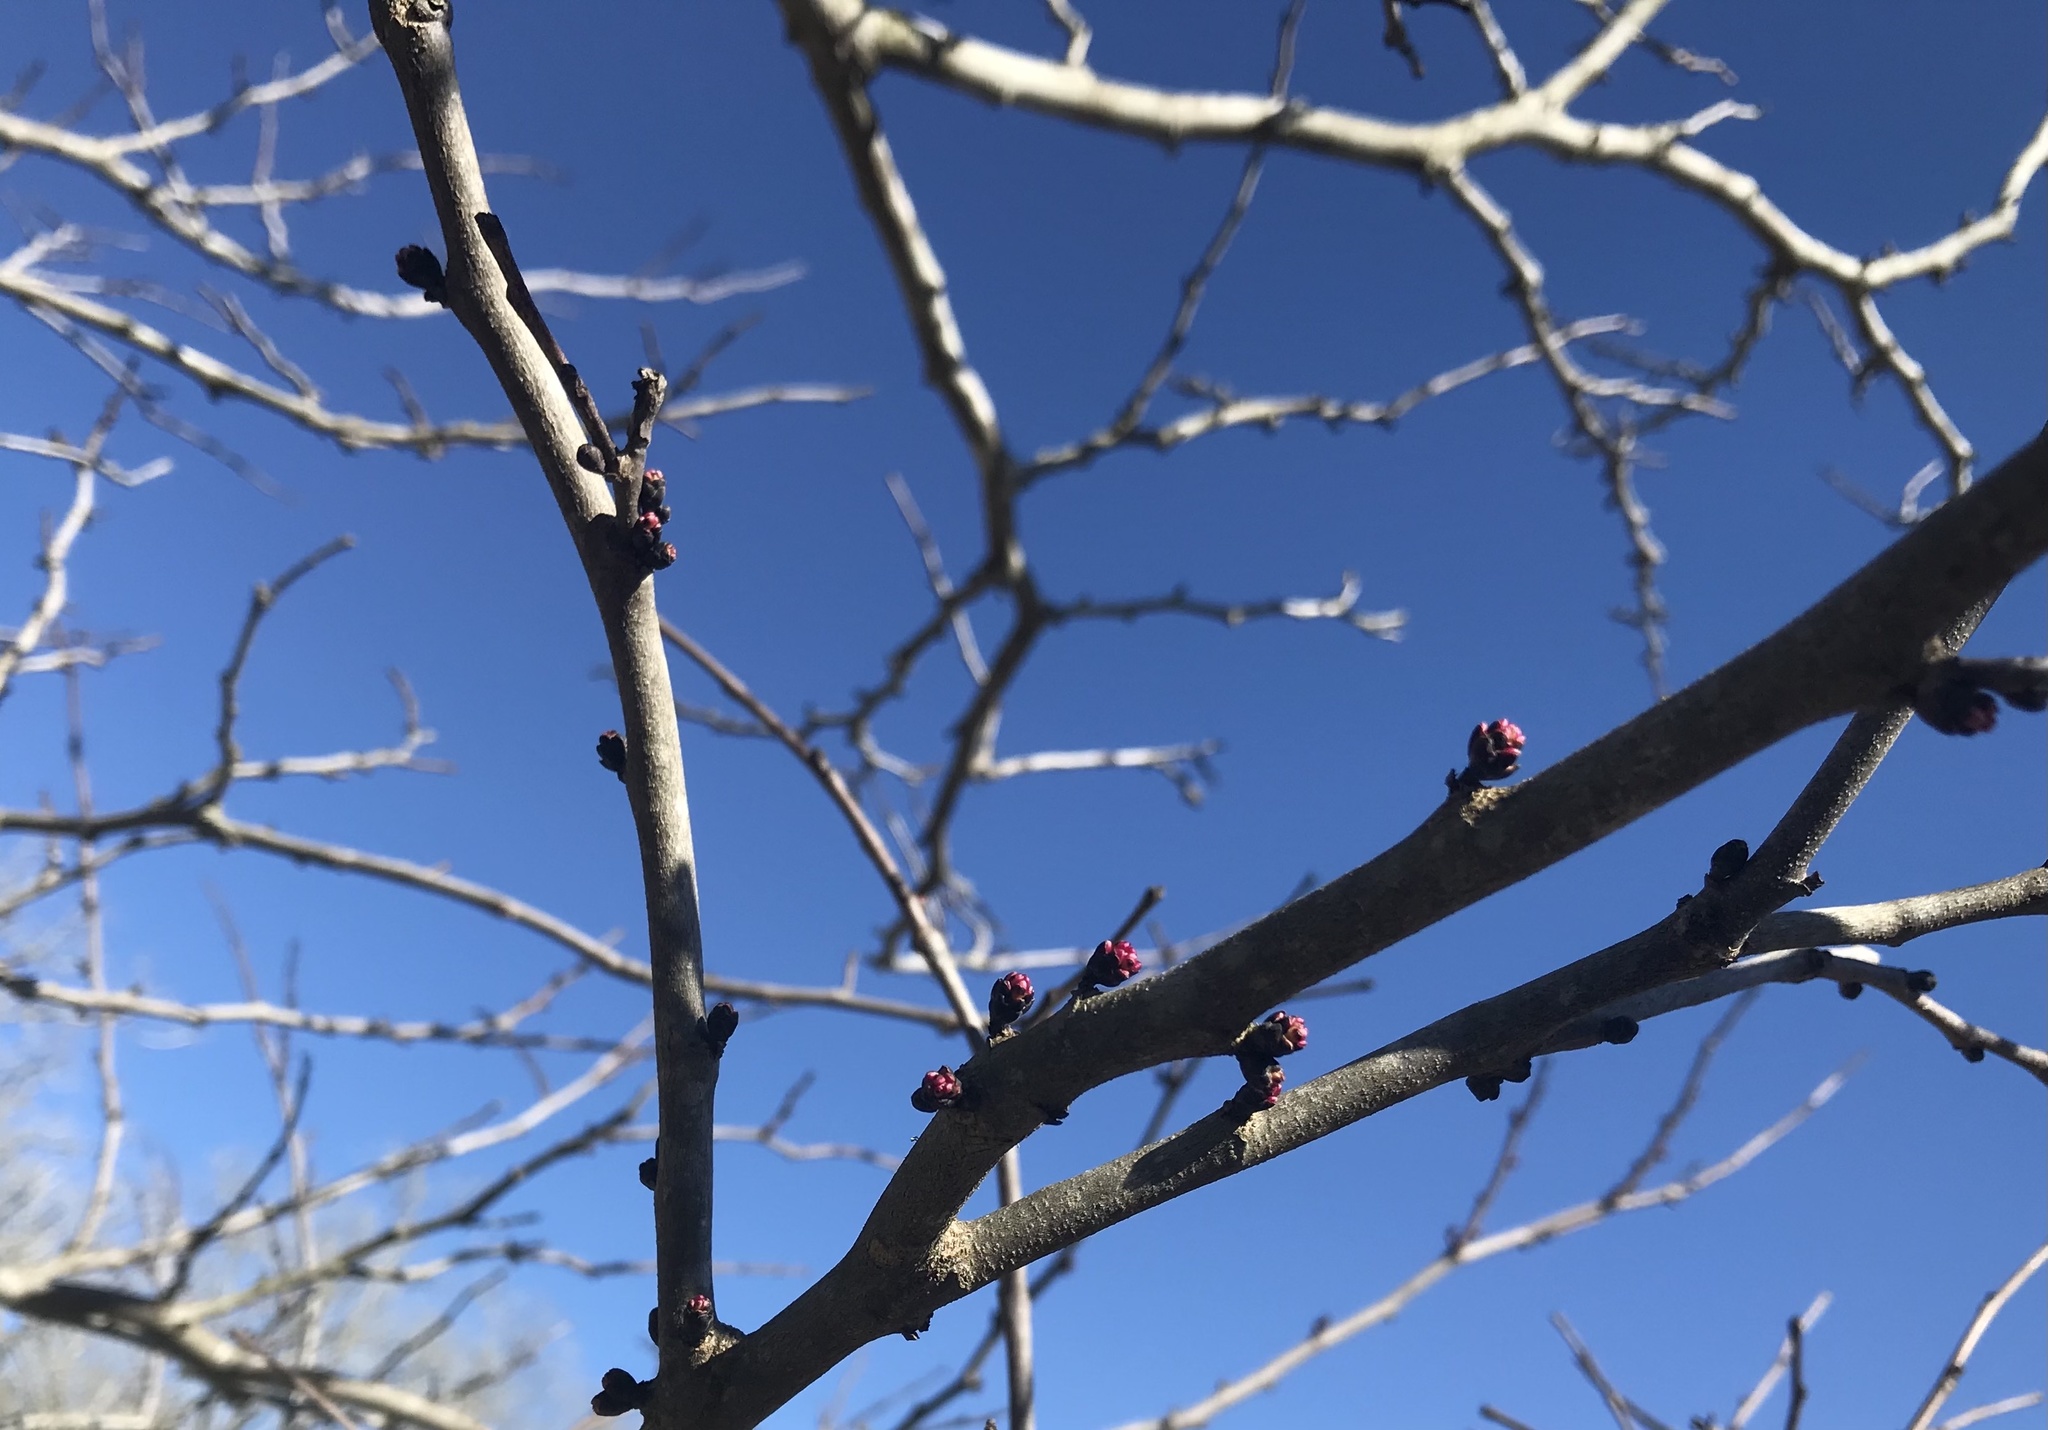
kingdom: Plantae
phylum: Tracheophyta
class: Magnoliopsida
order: Fabales
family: Fabaceae
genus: Cercis
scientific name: Cercis canadensis
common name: Eastern redbud
